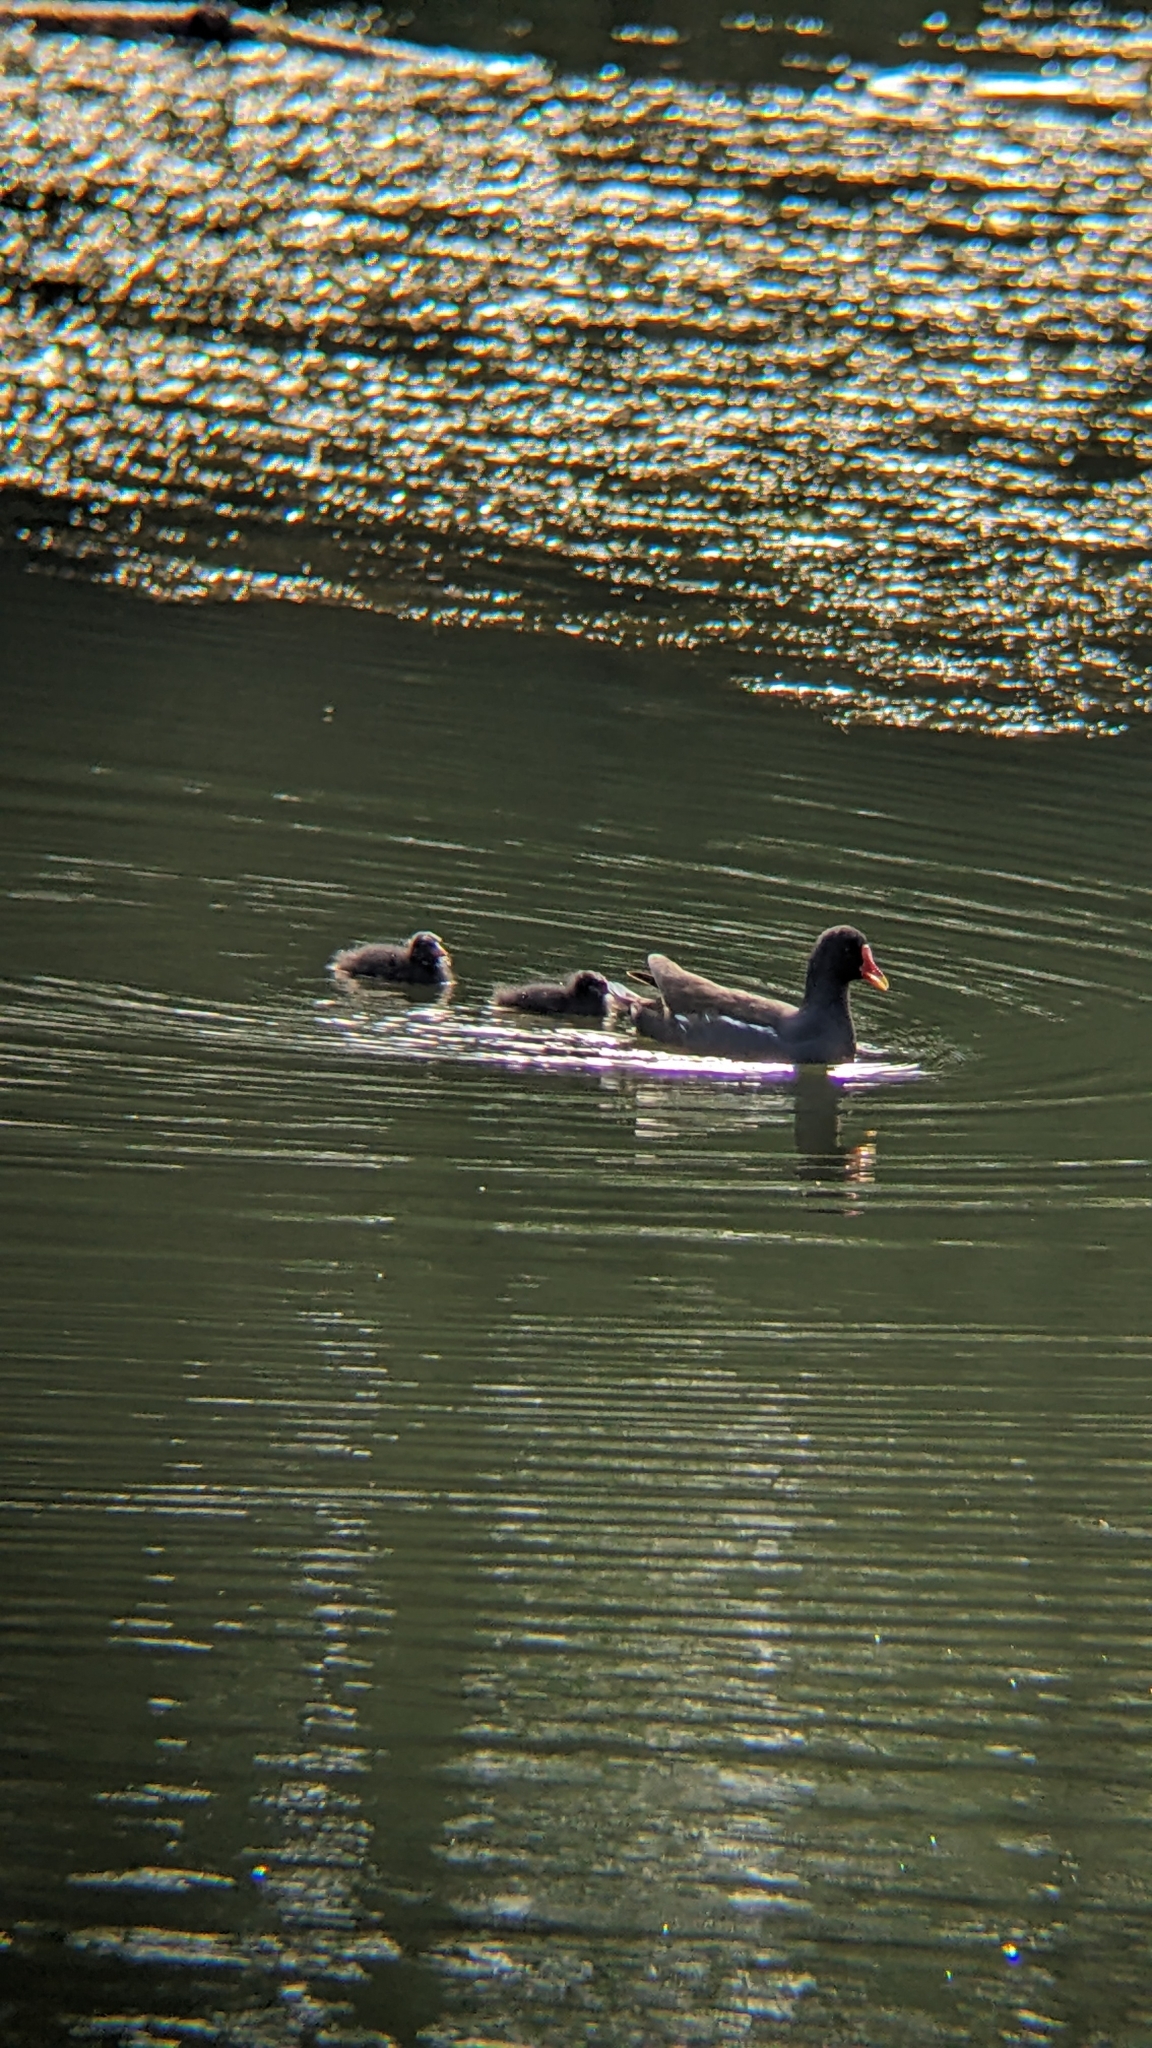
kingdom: Animalia
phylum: Chordata
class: Aves
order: Gruiformes
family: Rallidae
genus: Gallinula
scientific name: Gallinula chloropus
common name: Common moorhen
